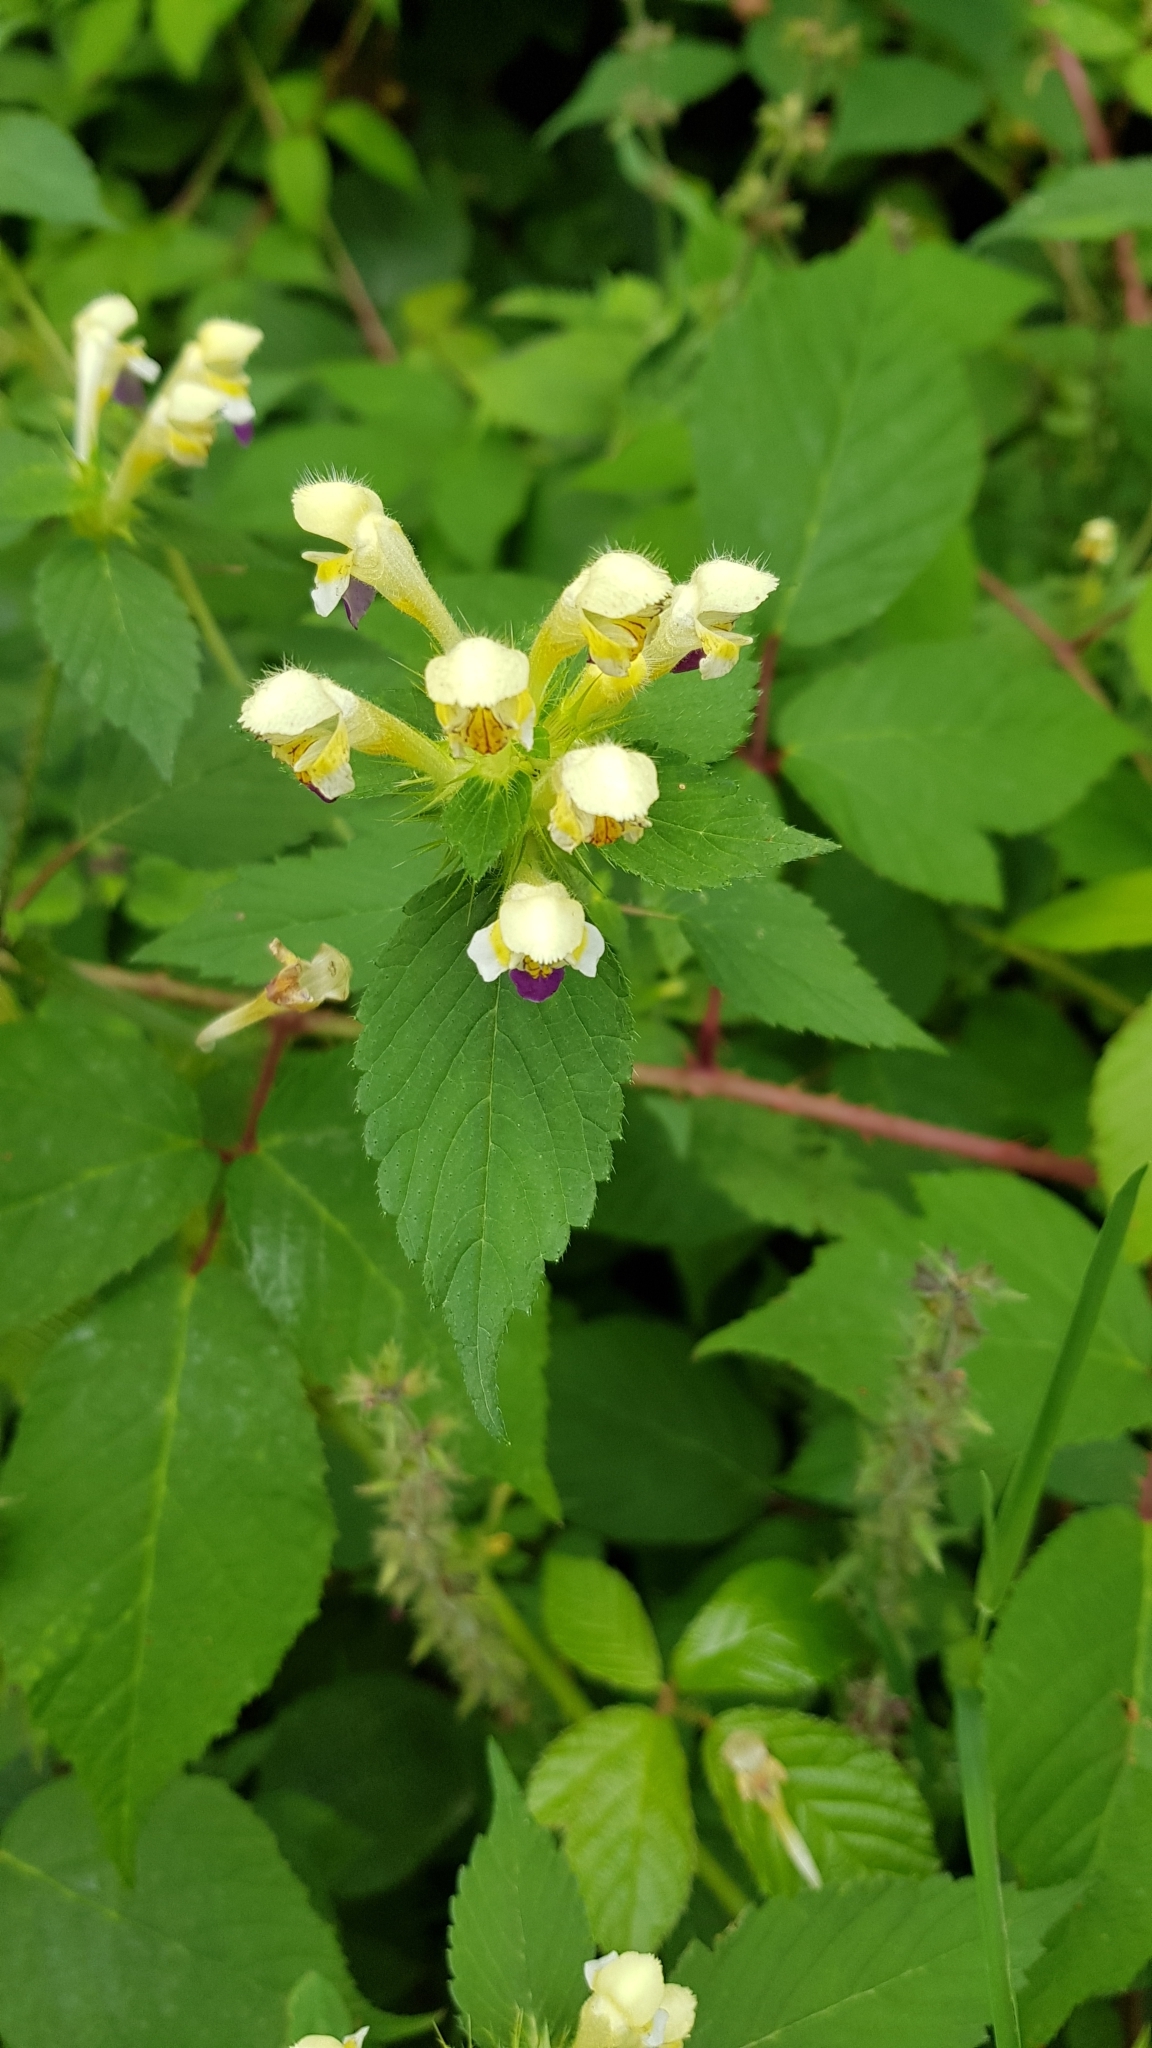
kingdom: Plantae
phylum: Tracheophyta
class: Magnoliopsida
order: Lamiales
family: Lamiaceae
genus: Galeopsis
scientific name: Galeopsis speciosa
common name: Large-flowered hemp-nettle
